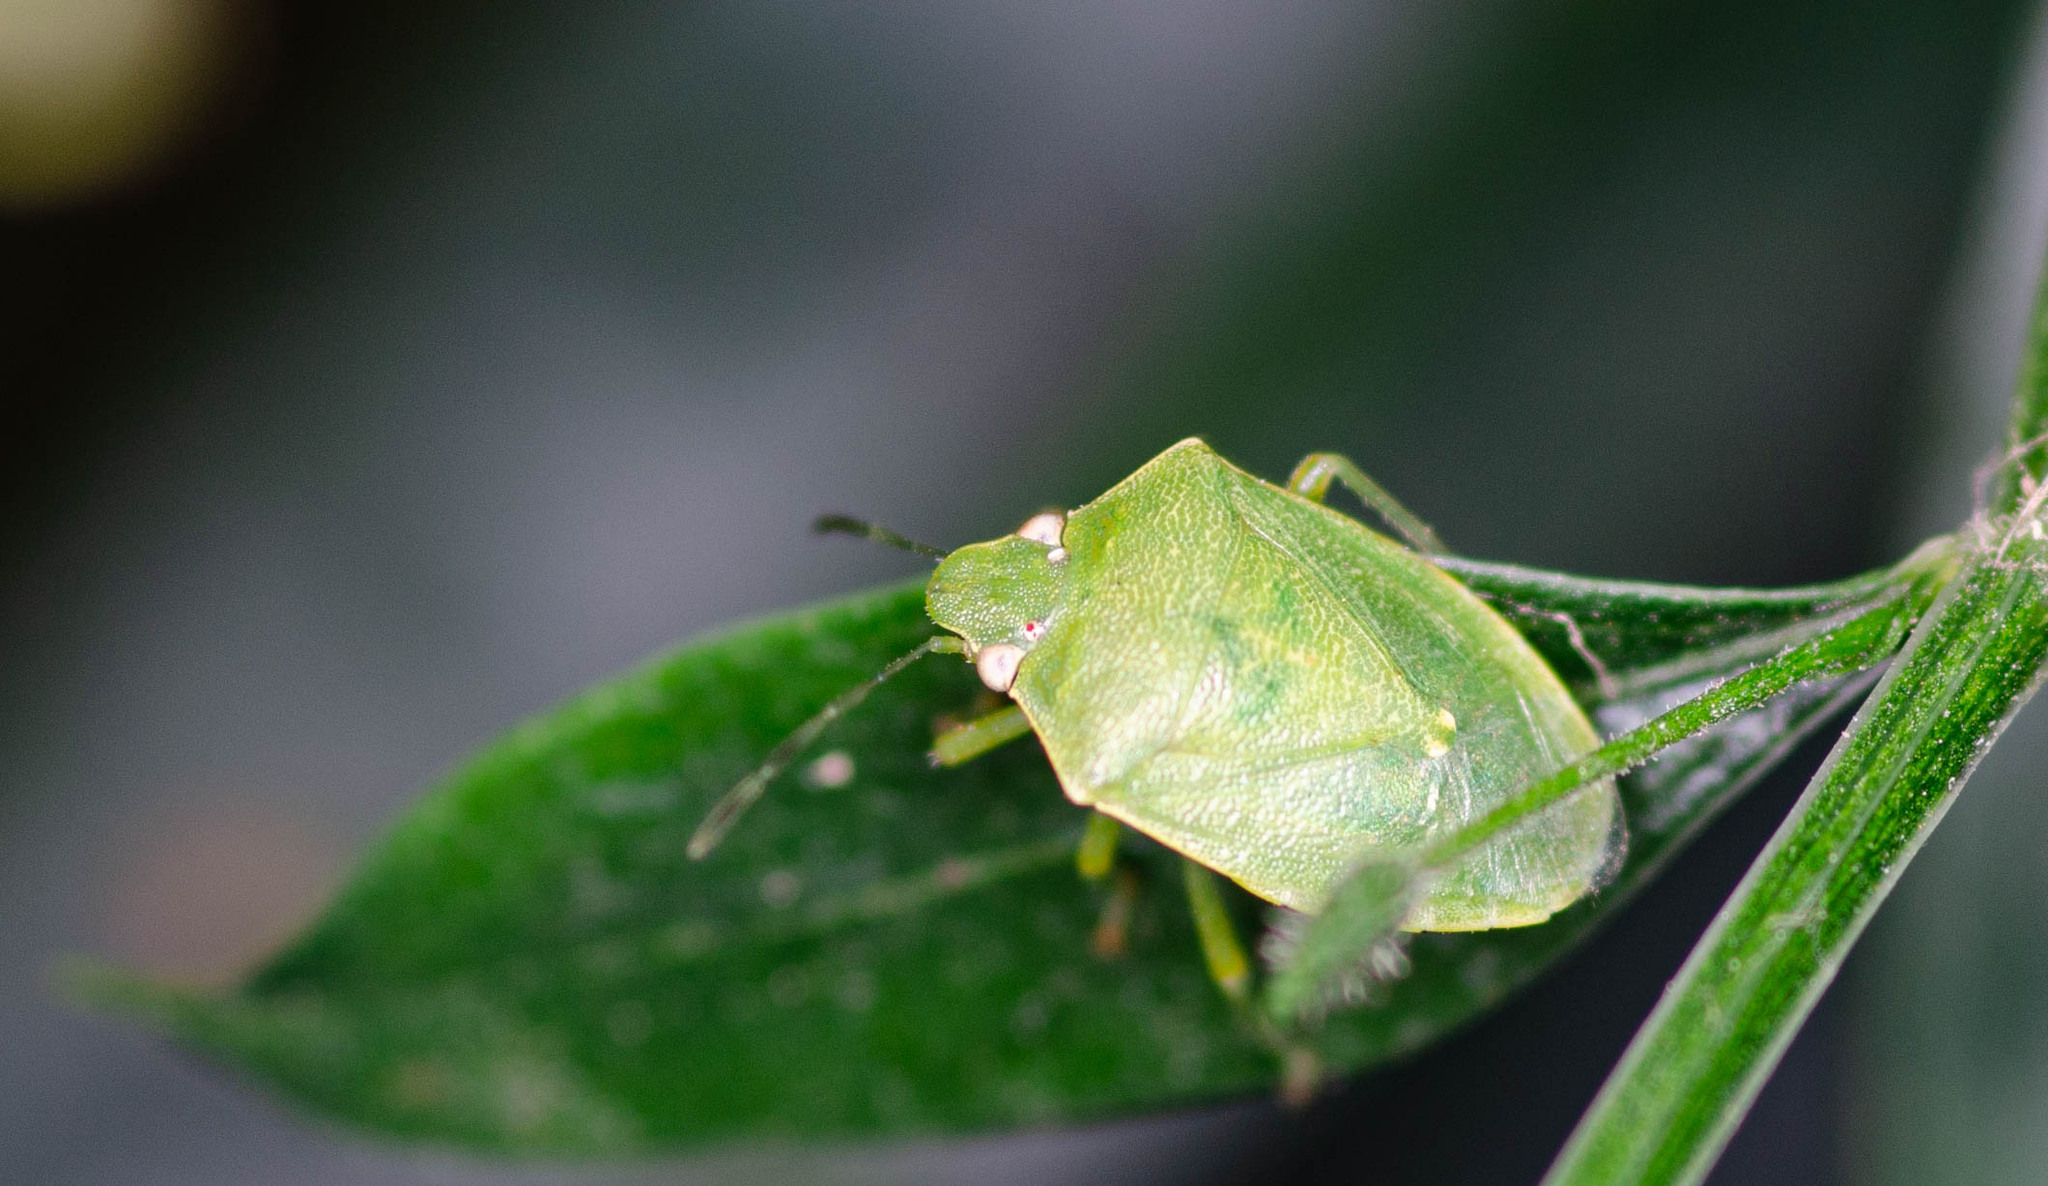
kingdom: Animalia
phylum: Arthropoda
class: Insecta
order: Hemiptera
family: Pentatomidae
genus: Acrosternum
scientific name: Acrosternum gramineum
